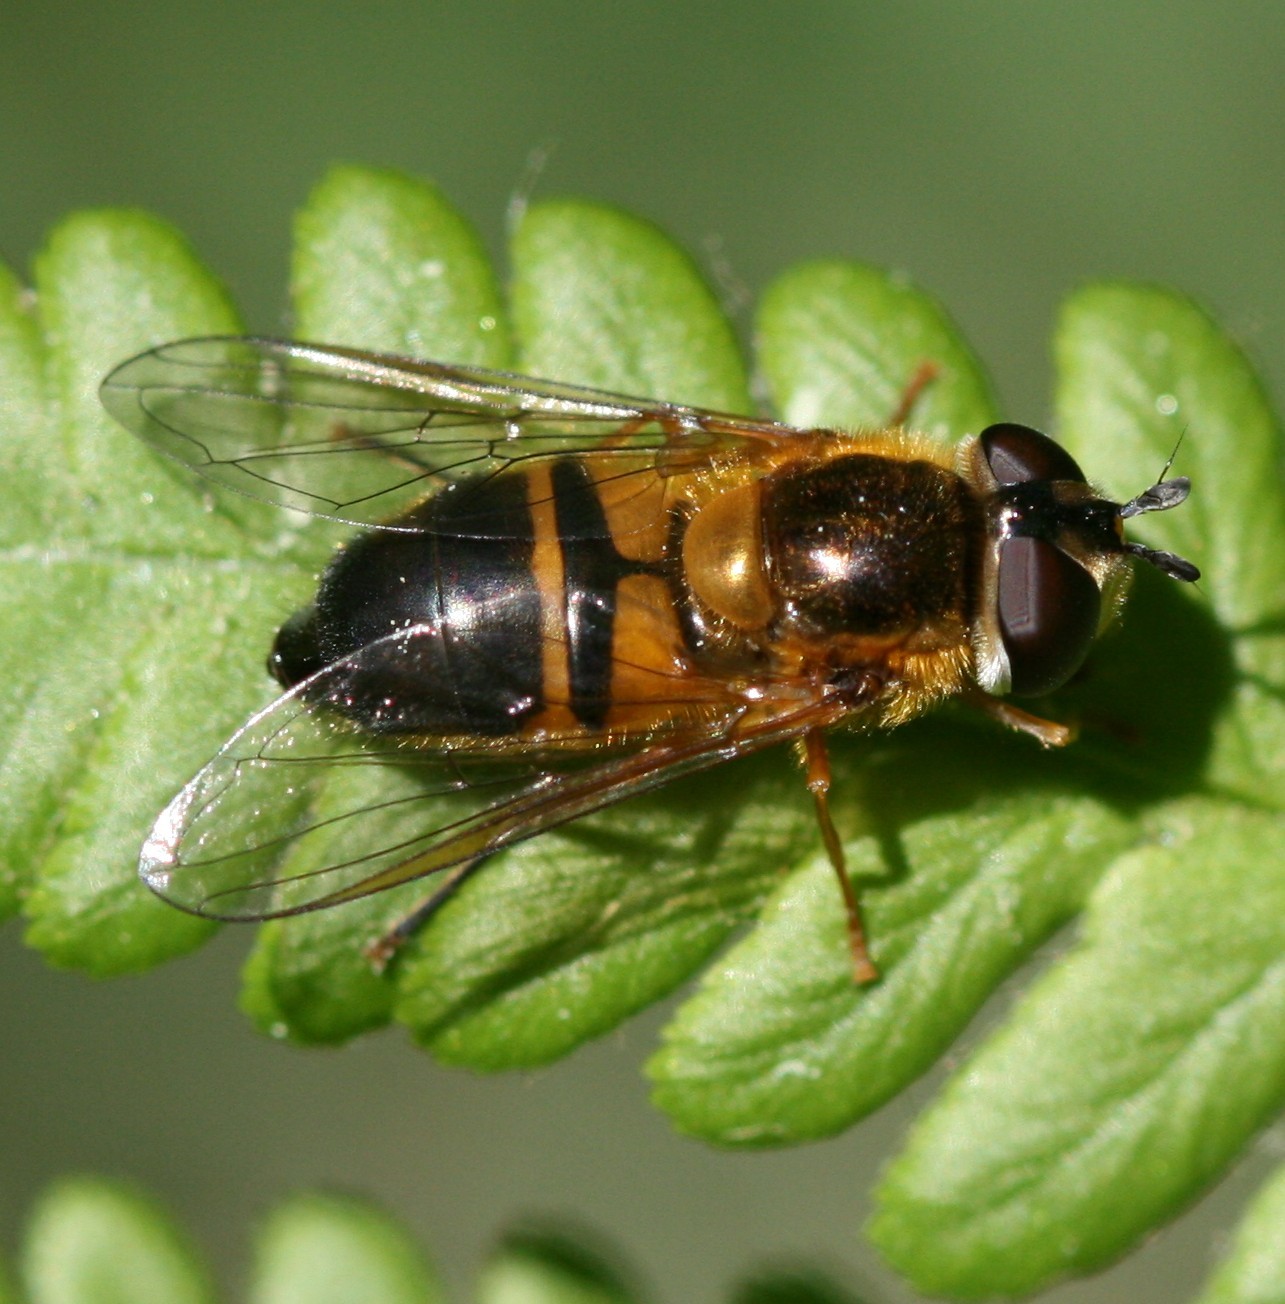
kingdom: Animalia
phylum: Arthropoda
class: Insecta
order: Diptera
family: Syrphidae
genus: Epistrophe
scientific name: Epistrophe eligans
